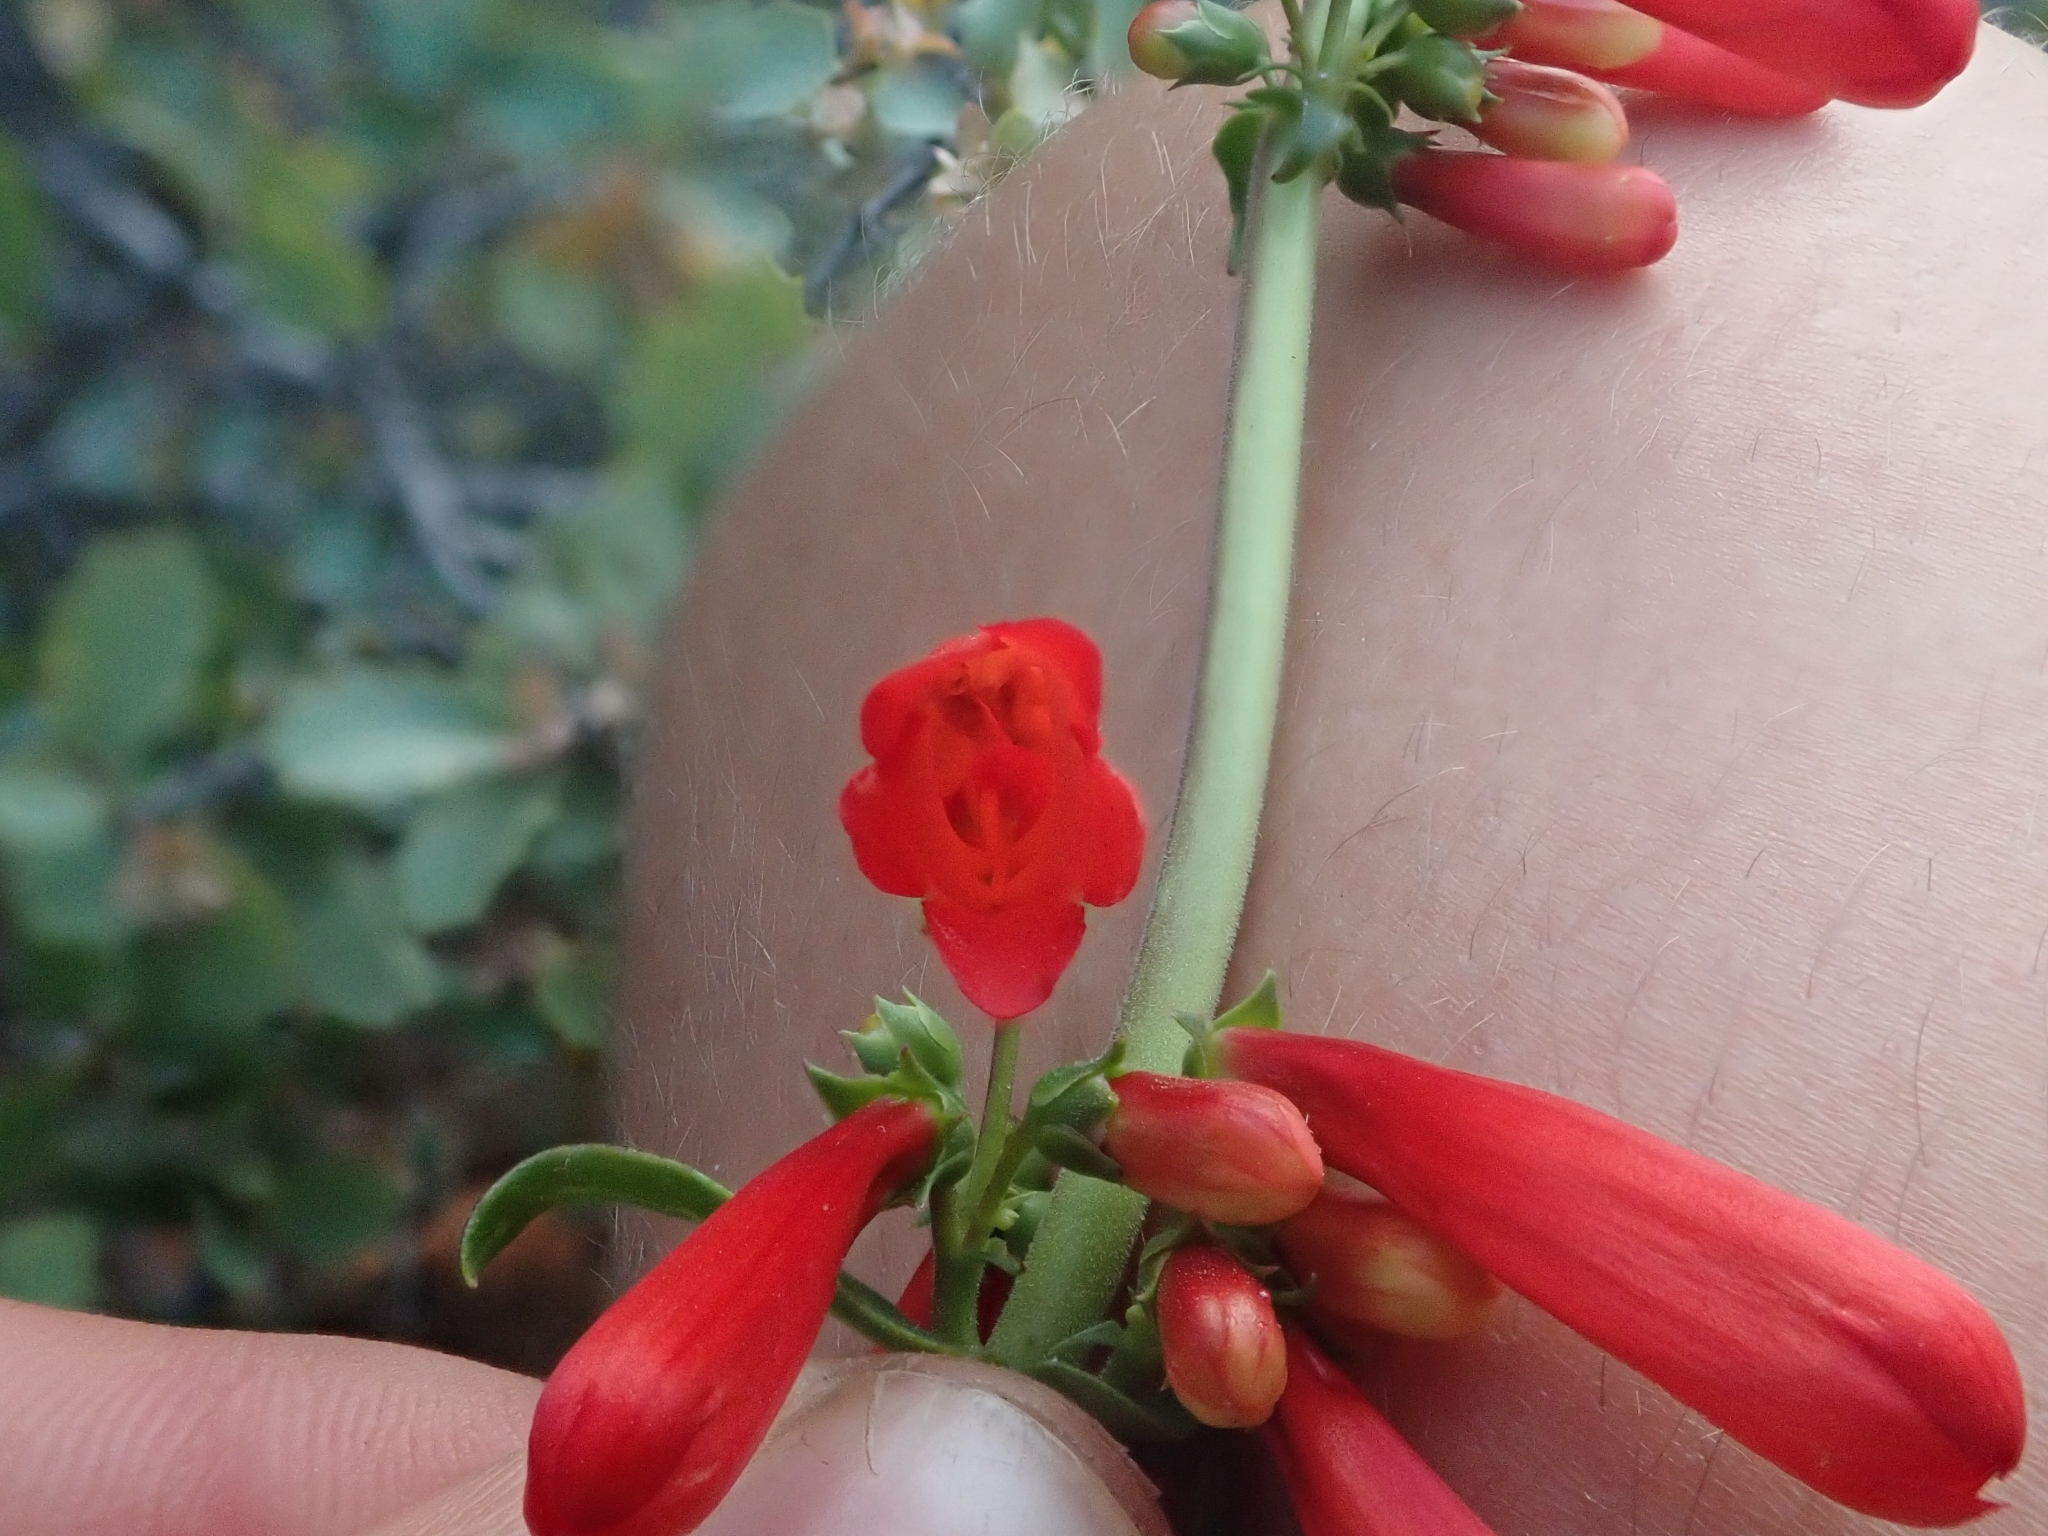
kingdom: Plantae
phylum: Tracheophyta
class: Magnoliopsida
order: Lamiales
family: Plantaginaceae
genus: Penstemon
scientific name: Penstemon eatonii
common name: Eaton's penstemon
